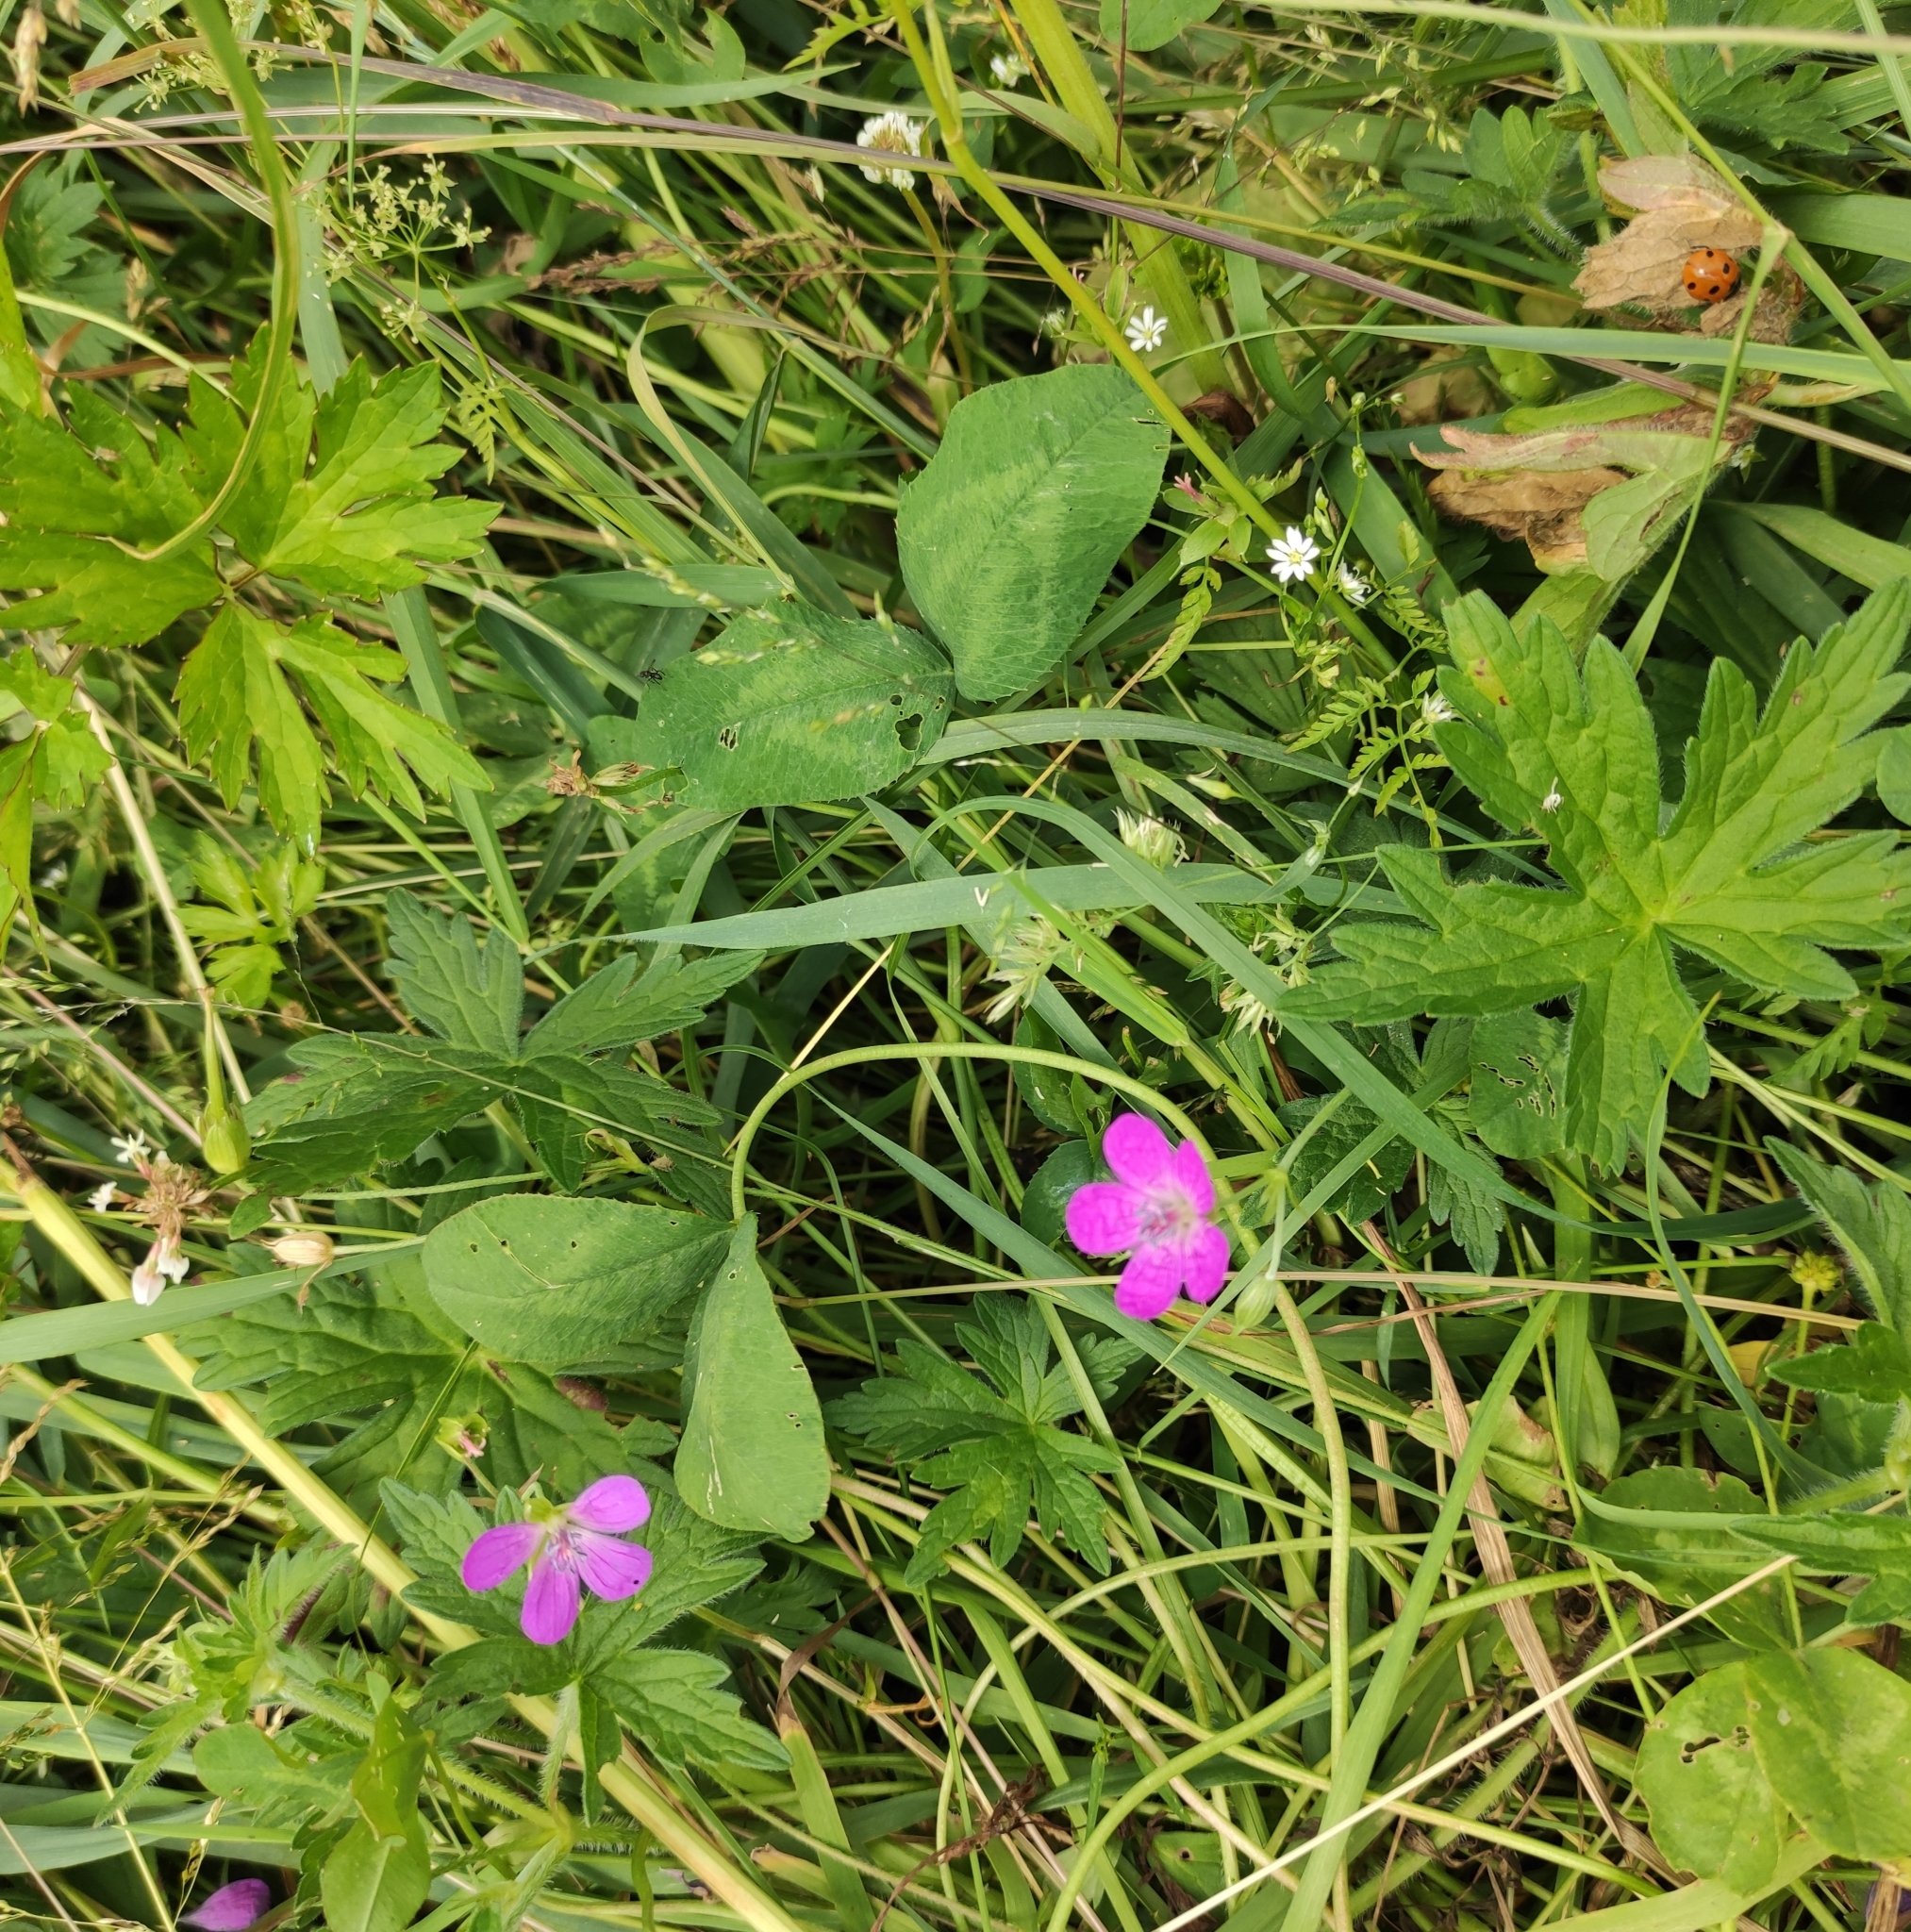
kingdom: Plantae
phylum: Tracheophyta
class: Magnoliopsida
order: Geraniales
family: Geraniaceae
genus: Geranium
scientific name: Geranium palustre
